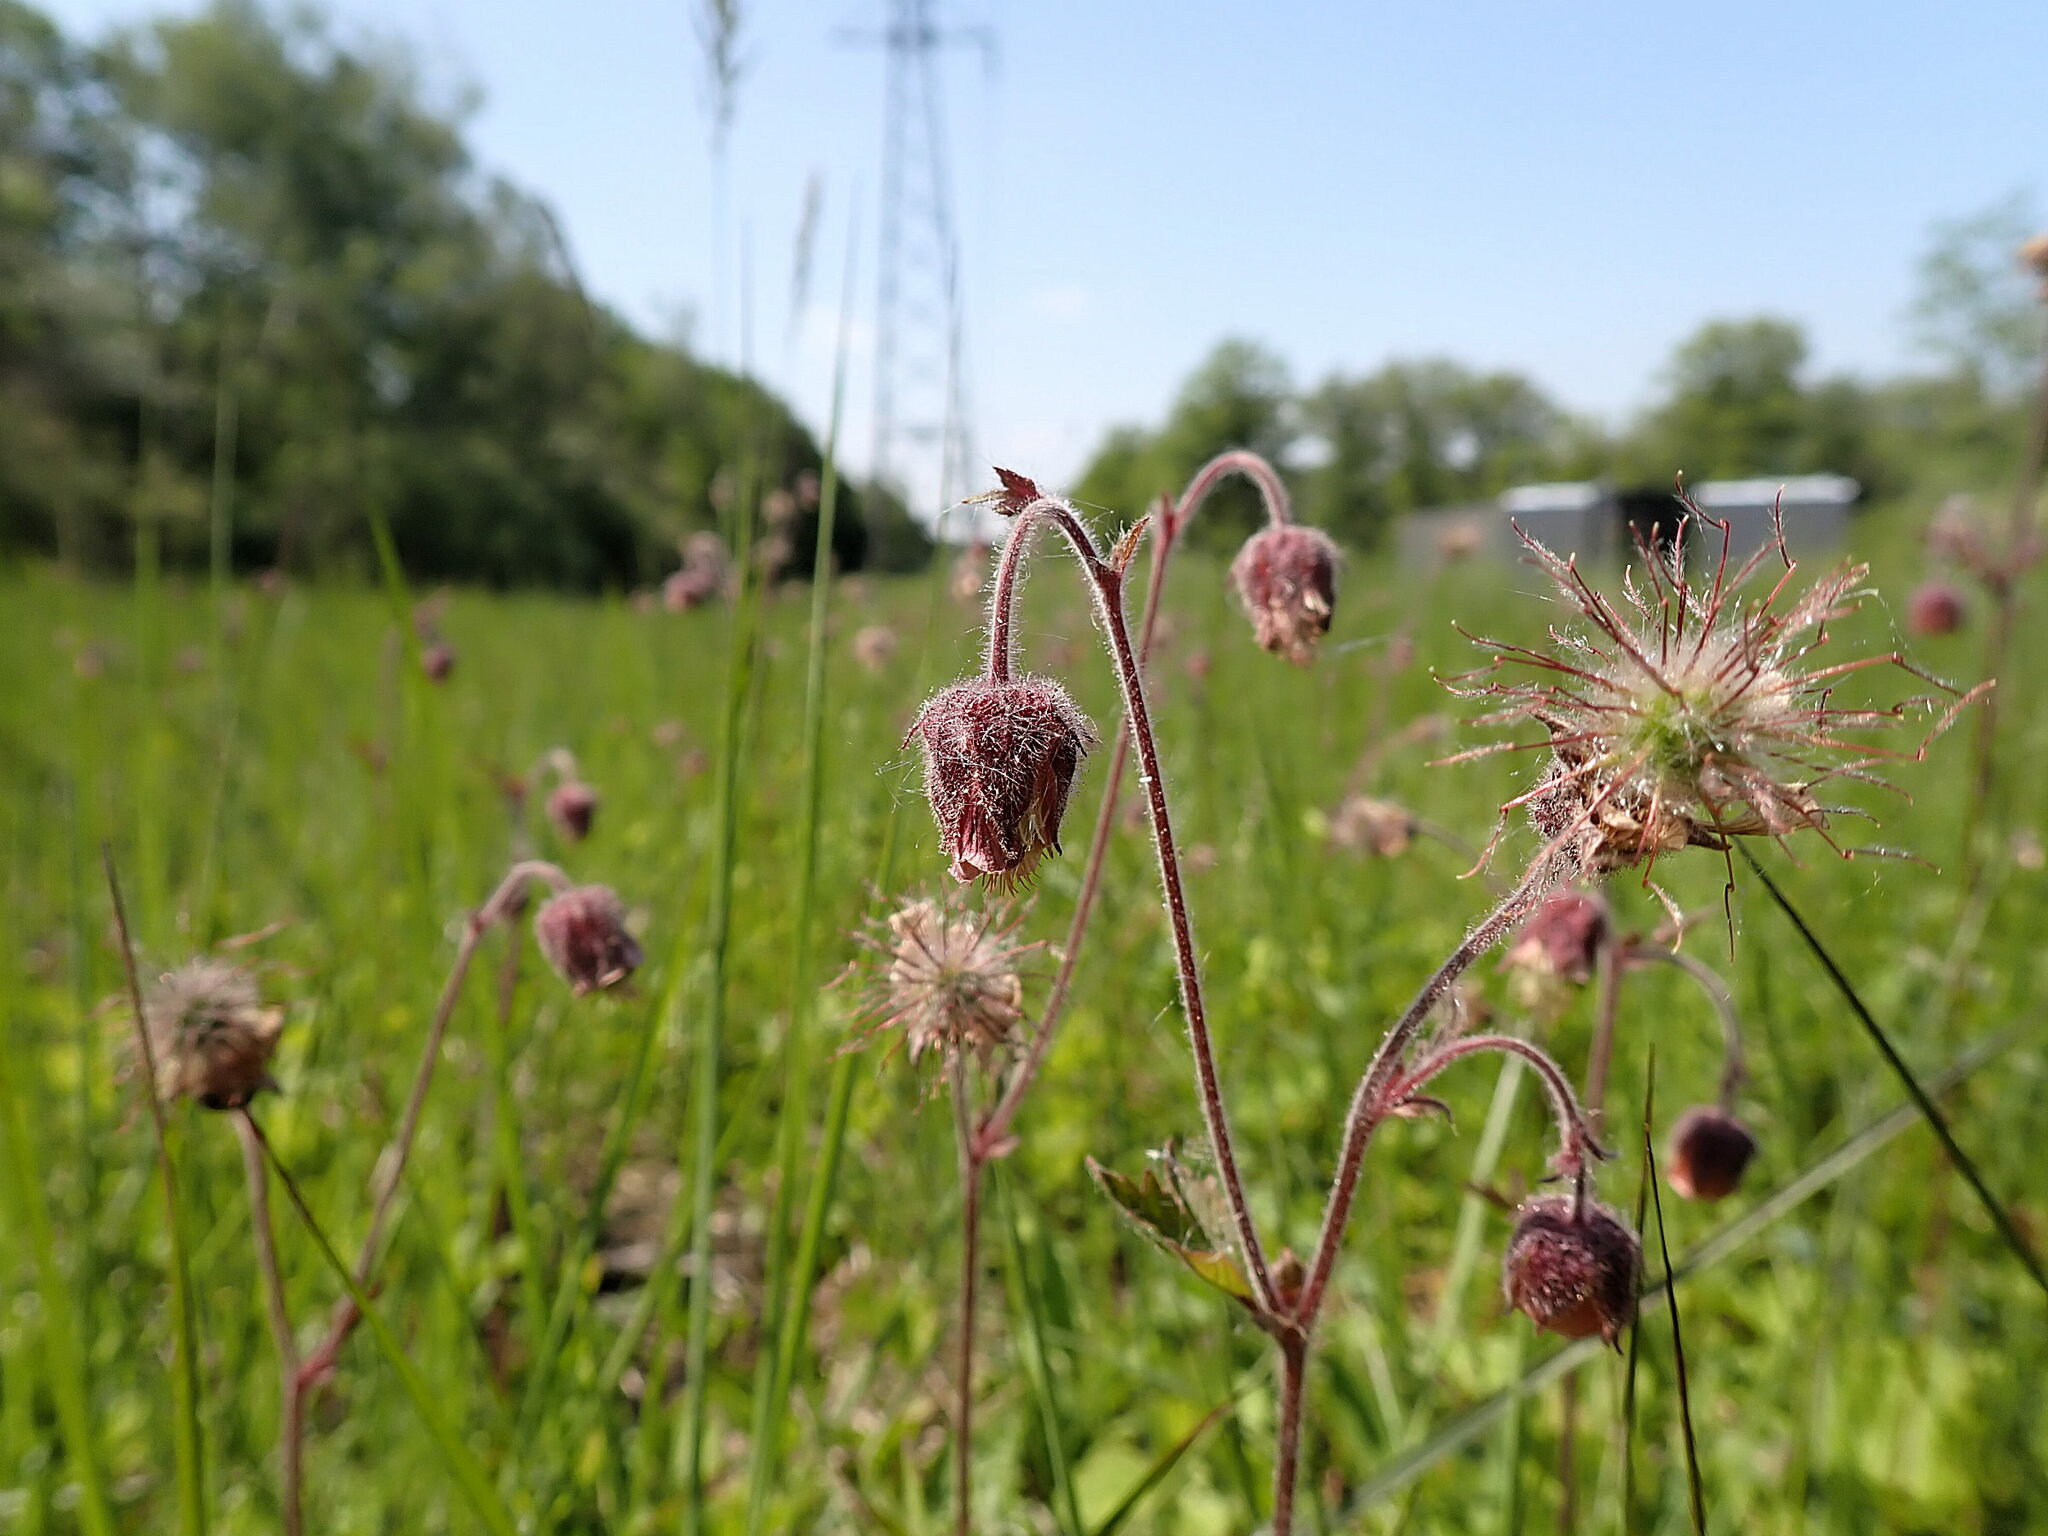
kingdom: Plantae
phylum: Tracheophyta
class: Magnoliopsida
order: Rosales
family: Rosaceae
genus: Geum
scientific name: Geum rivale
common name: Water avens
